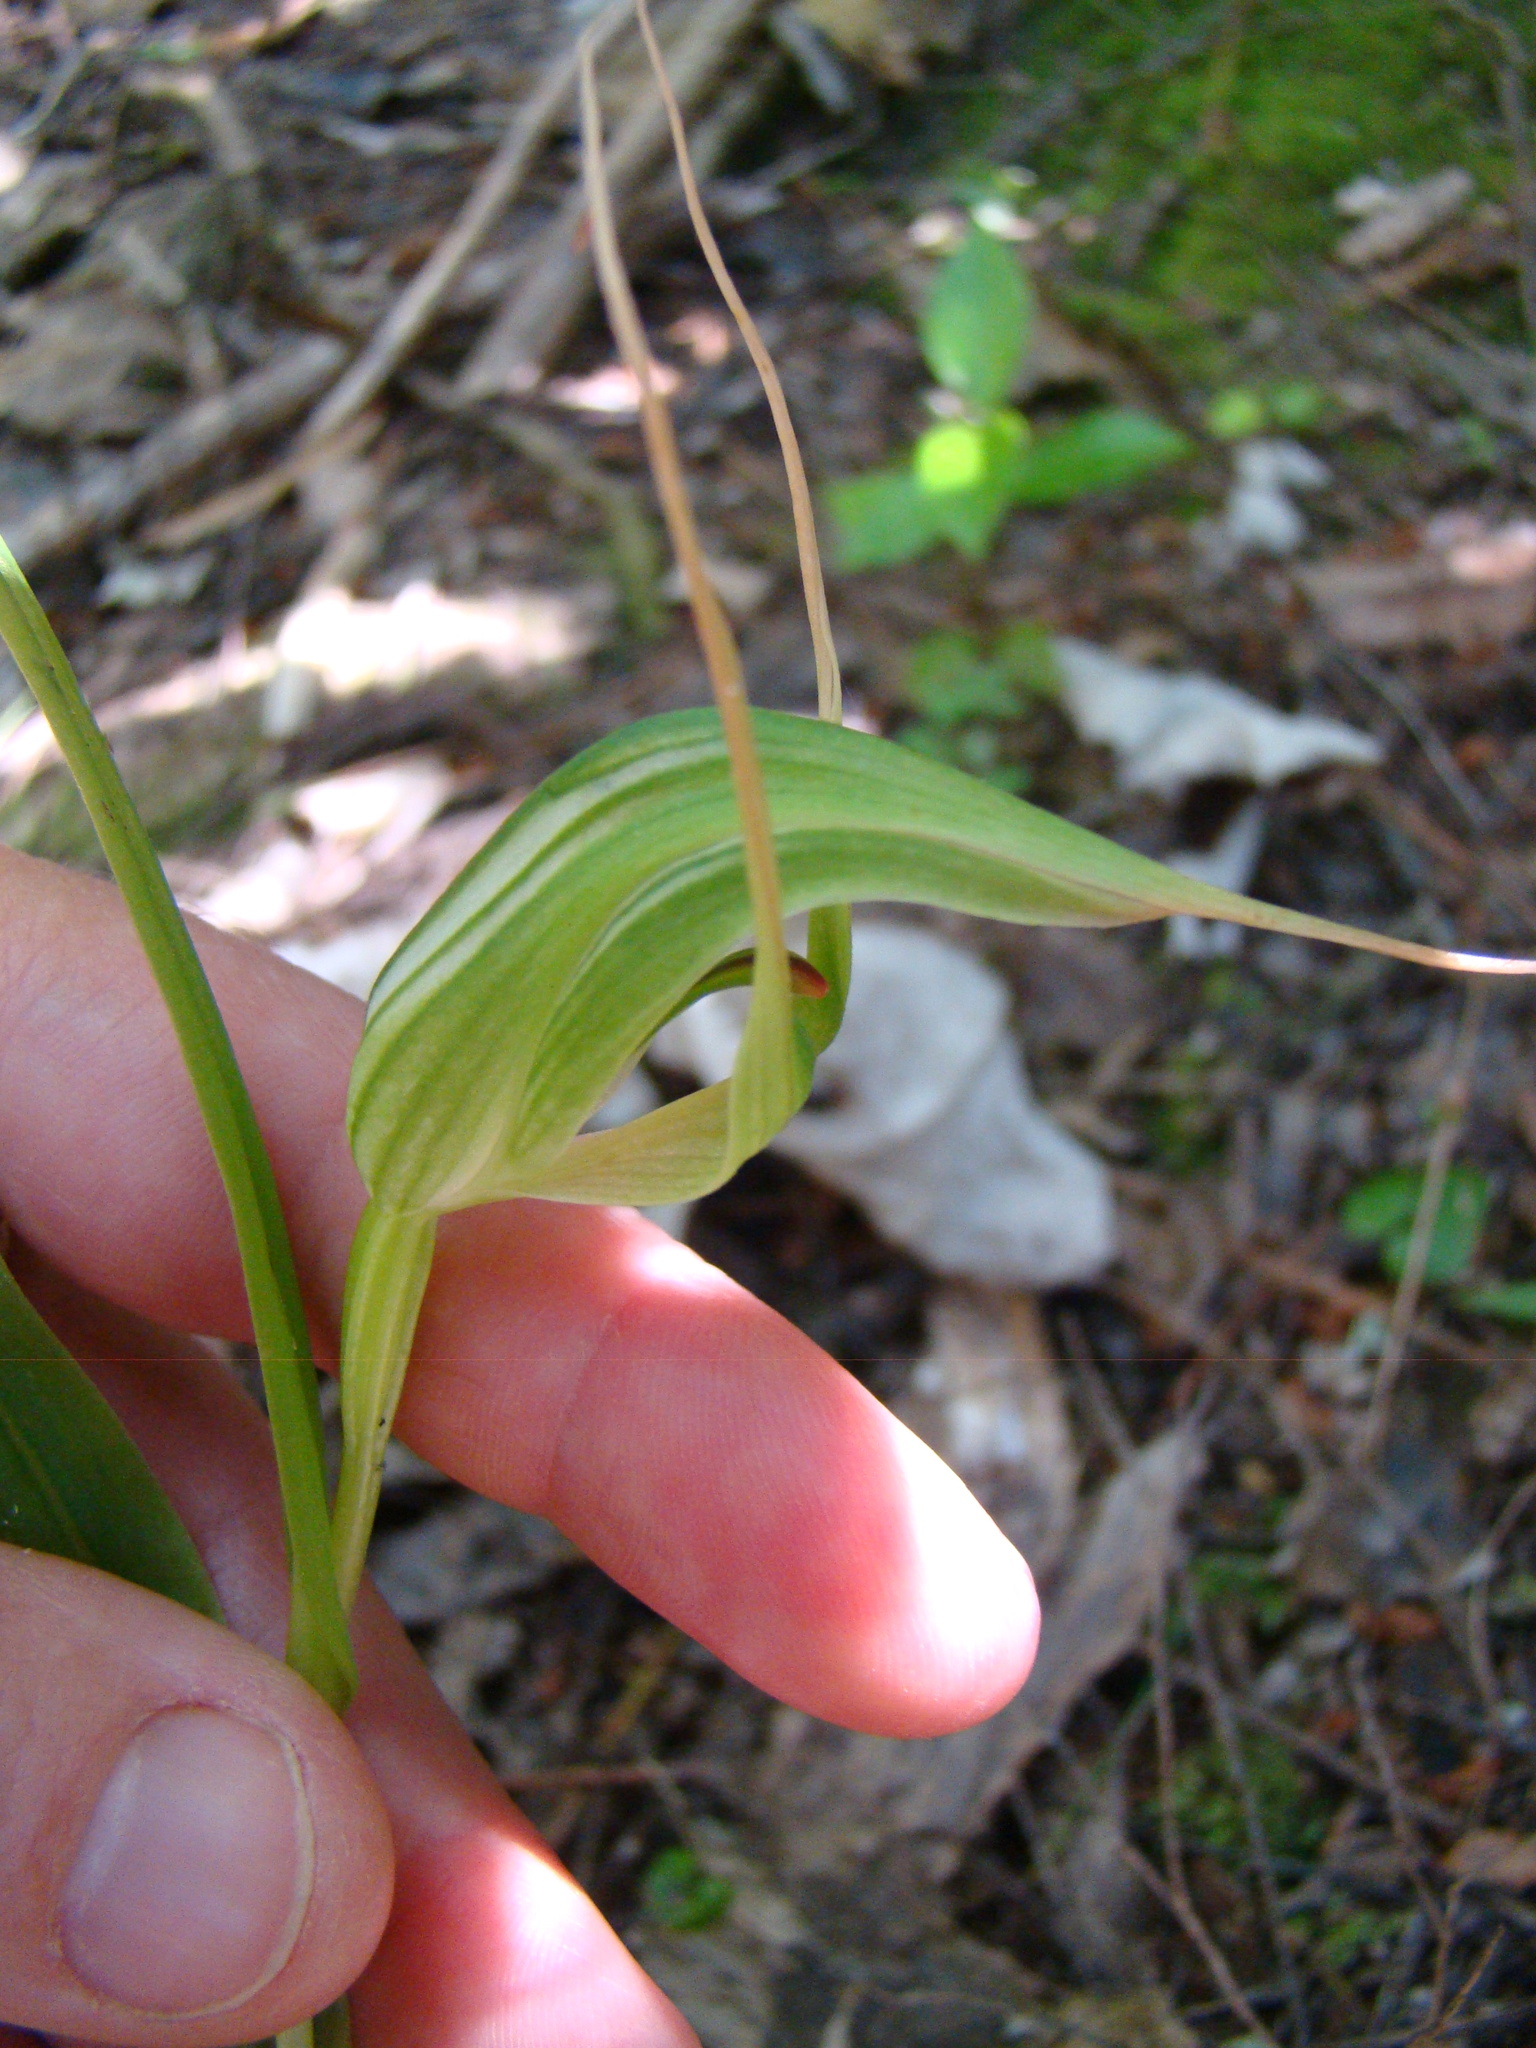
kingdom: Plantae
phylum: Tracheophyta
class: Liliopsida
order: Asparagales
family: Orchidaceae
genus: Pterostylis
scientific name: Pterostylis banksii
